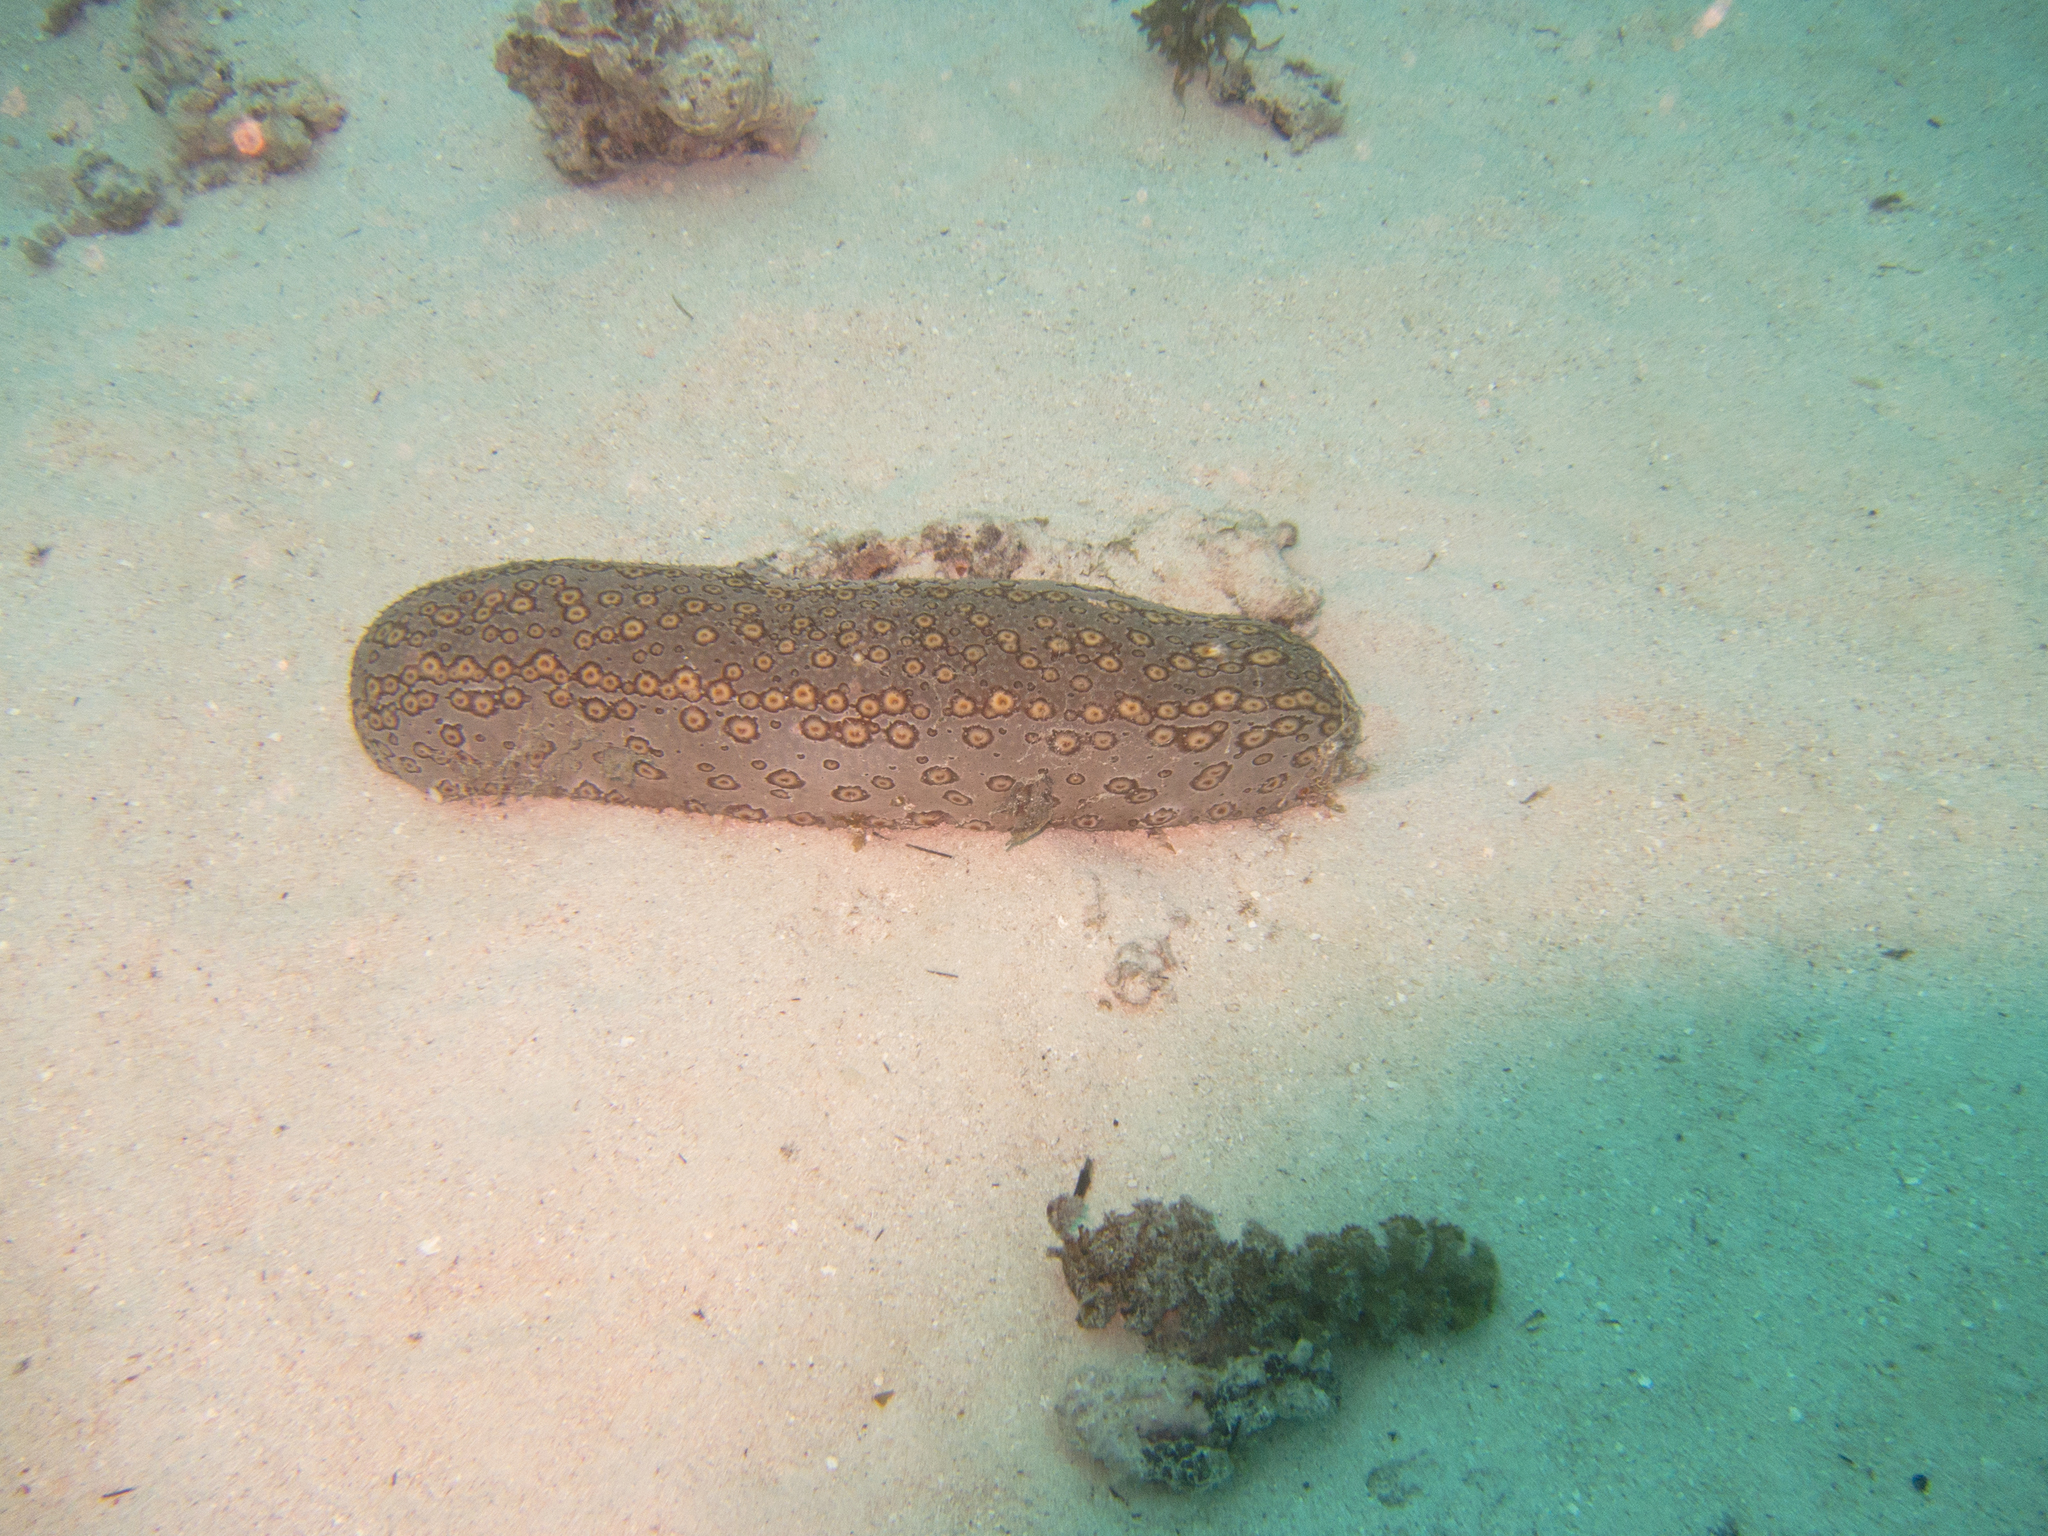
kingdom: Animalia
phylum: Echinodermata
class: Holothuroidea
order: Holothuriida
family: Holothuriidae
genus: Bohadschia
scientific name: Bohadschia argus
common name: Leopardfish
